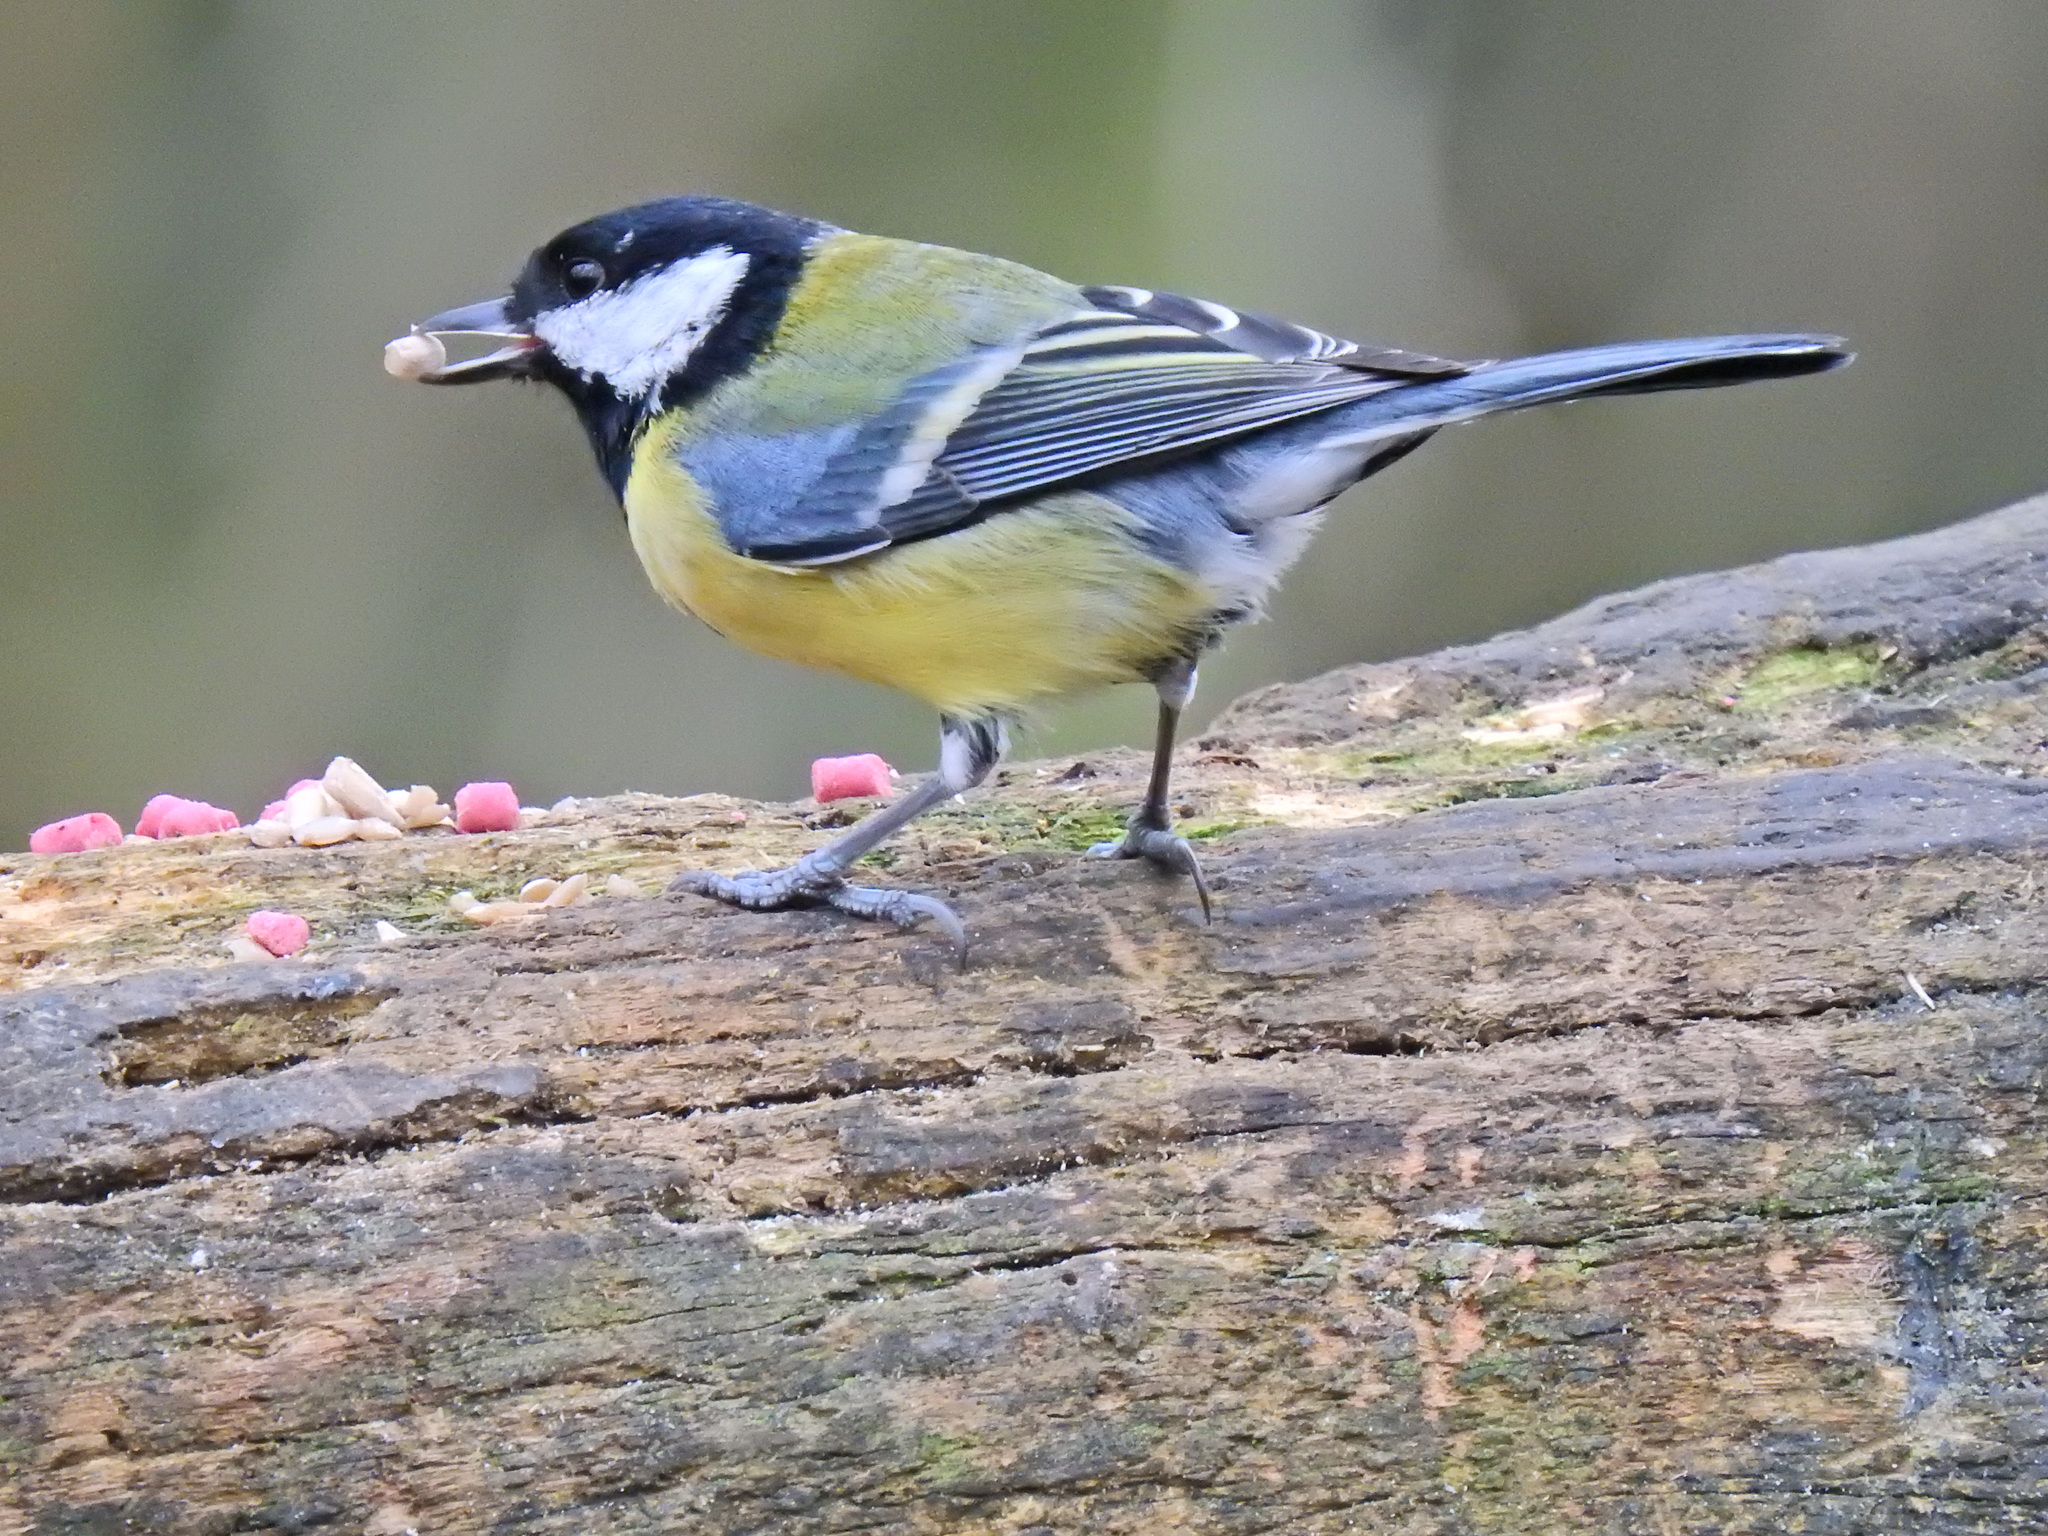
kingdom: Animalia
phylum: Chordata
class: Aves
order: Passeriformes
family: Paridae
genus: Parus
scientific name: Parus major
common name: Great tit
